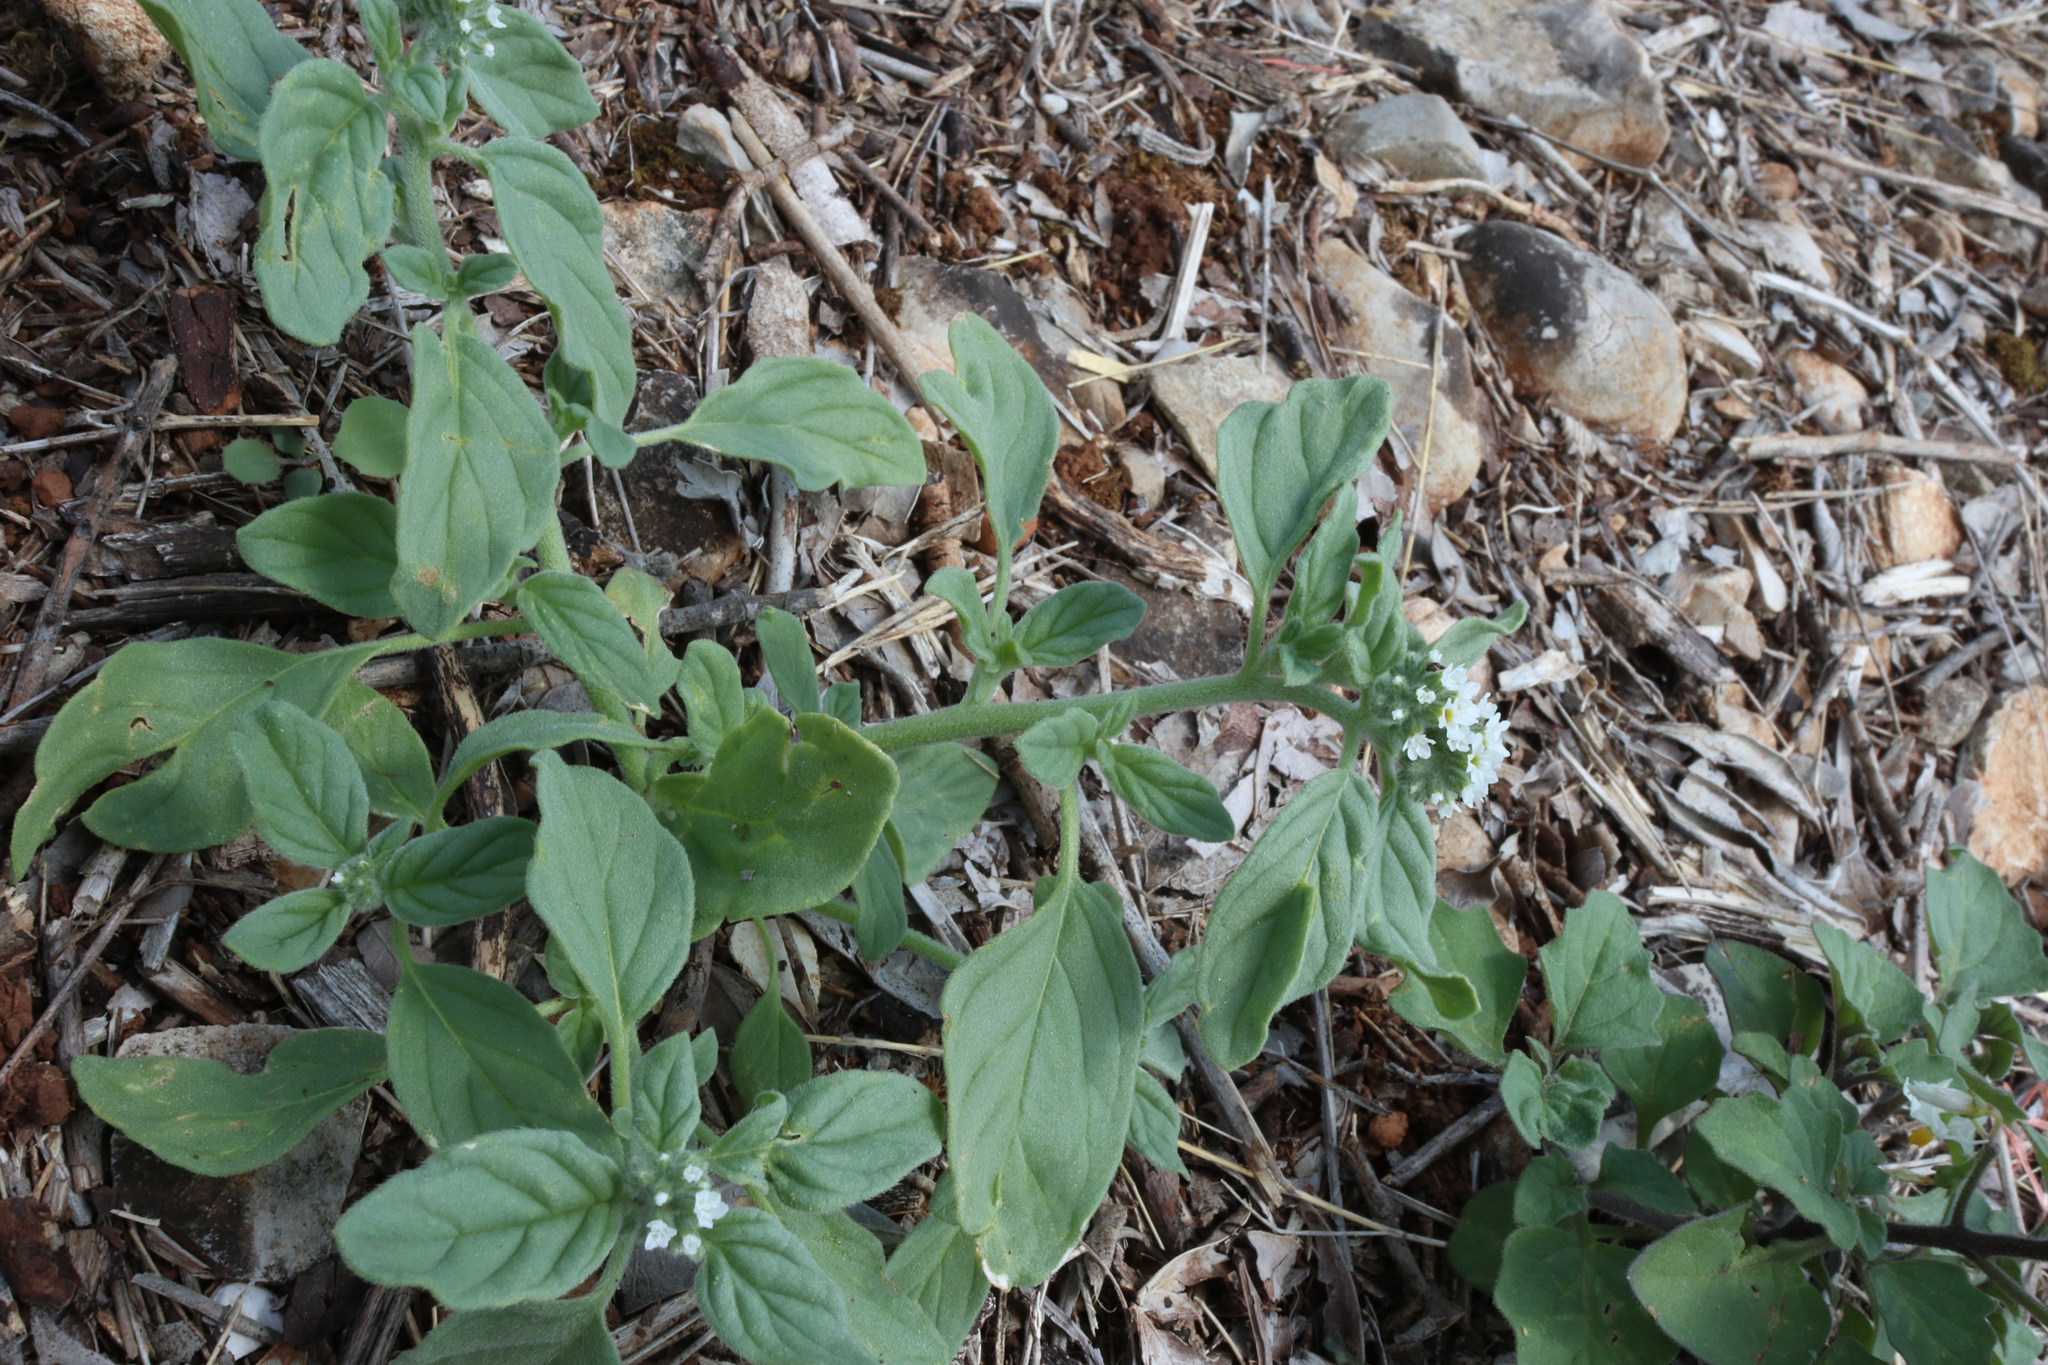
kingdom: Plantae
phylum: Tracheophyta
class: Magnoliopsida
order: Boraginales
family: Heliotropiaceae
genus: Heliotropium
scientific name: Heliotropium europaeum
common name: European heliotrope
